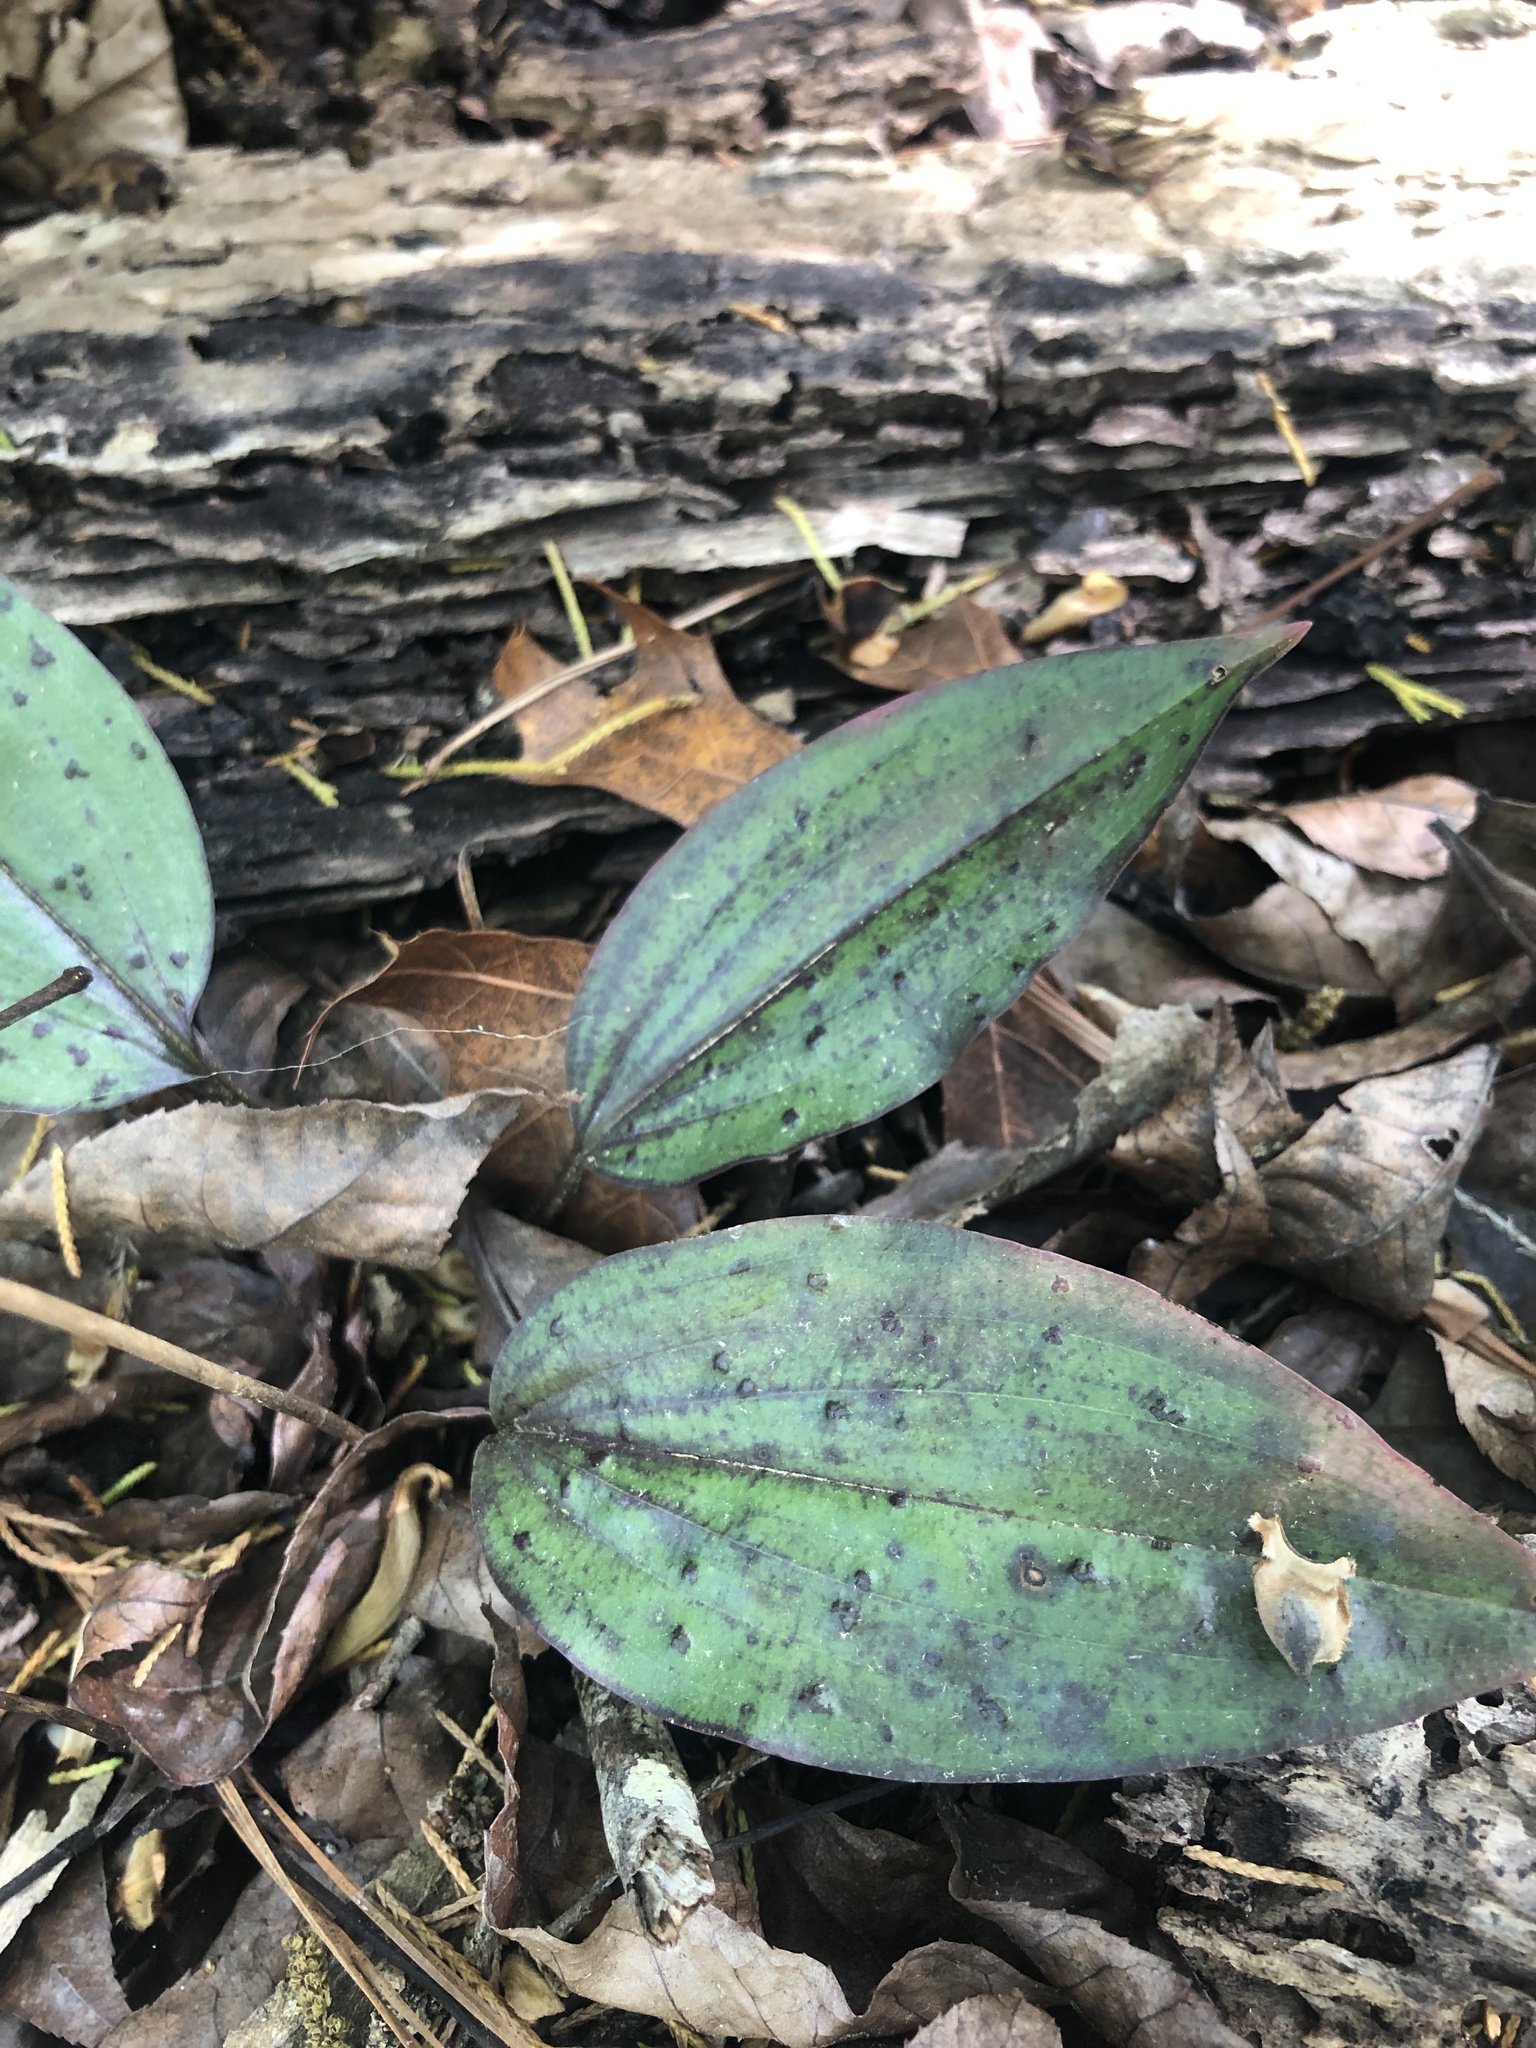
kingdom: Plantae
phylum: Tracheophyta
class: Liliopsida
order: Asparagales
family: Orchidaceae
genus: Tipularia
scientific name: Tipularia discolor
